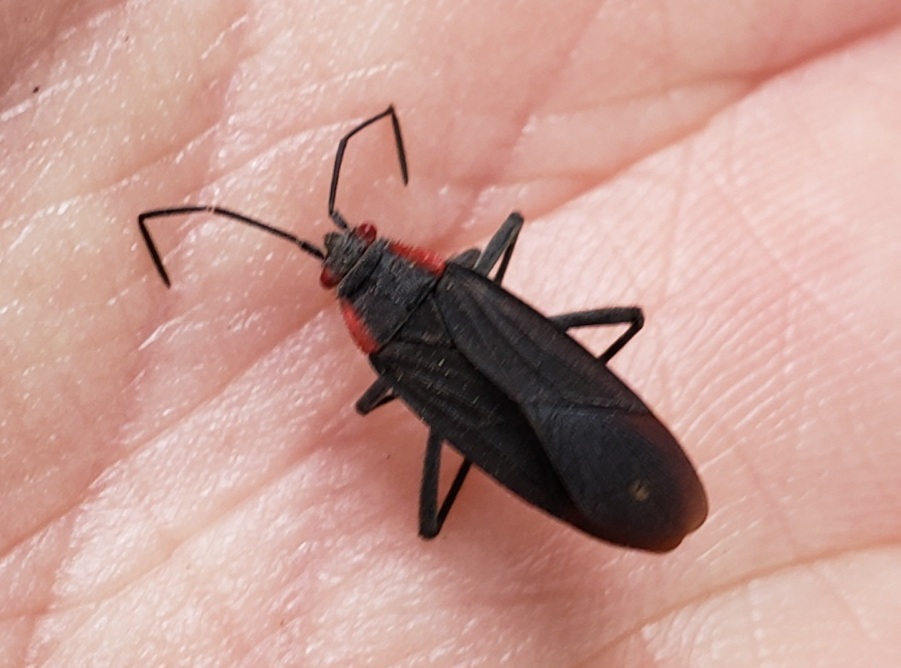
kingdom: Animalia
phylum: Arthropoda
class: Insecta
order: Hemiptera
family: Rhopalidae
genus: Jadera
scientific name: Jadera haematoloma
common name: Red-shouldered bug
